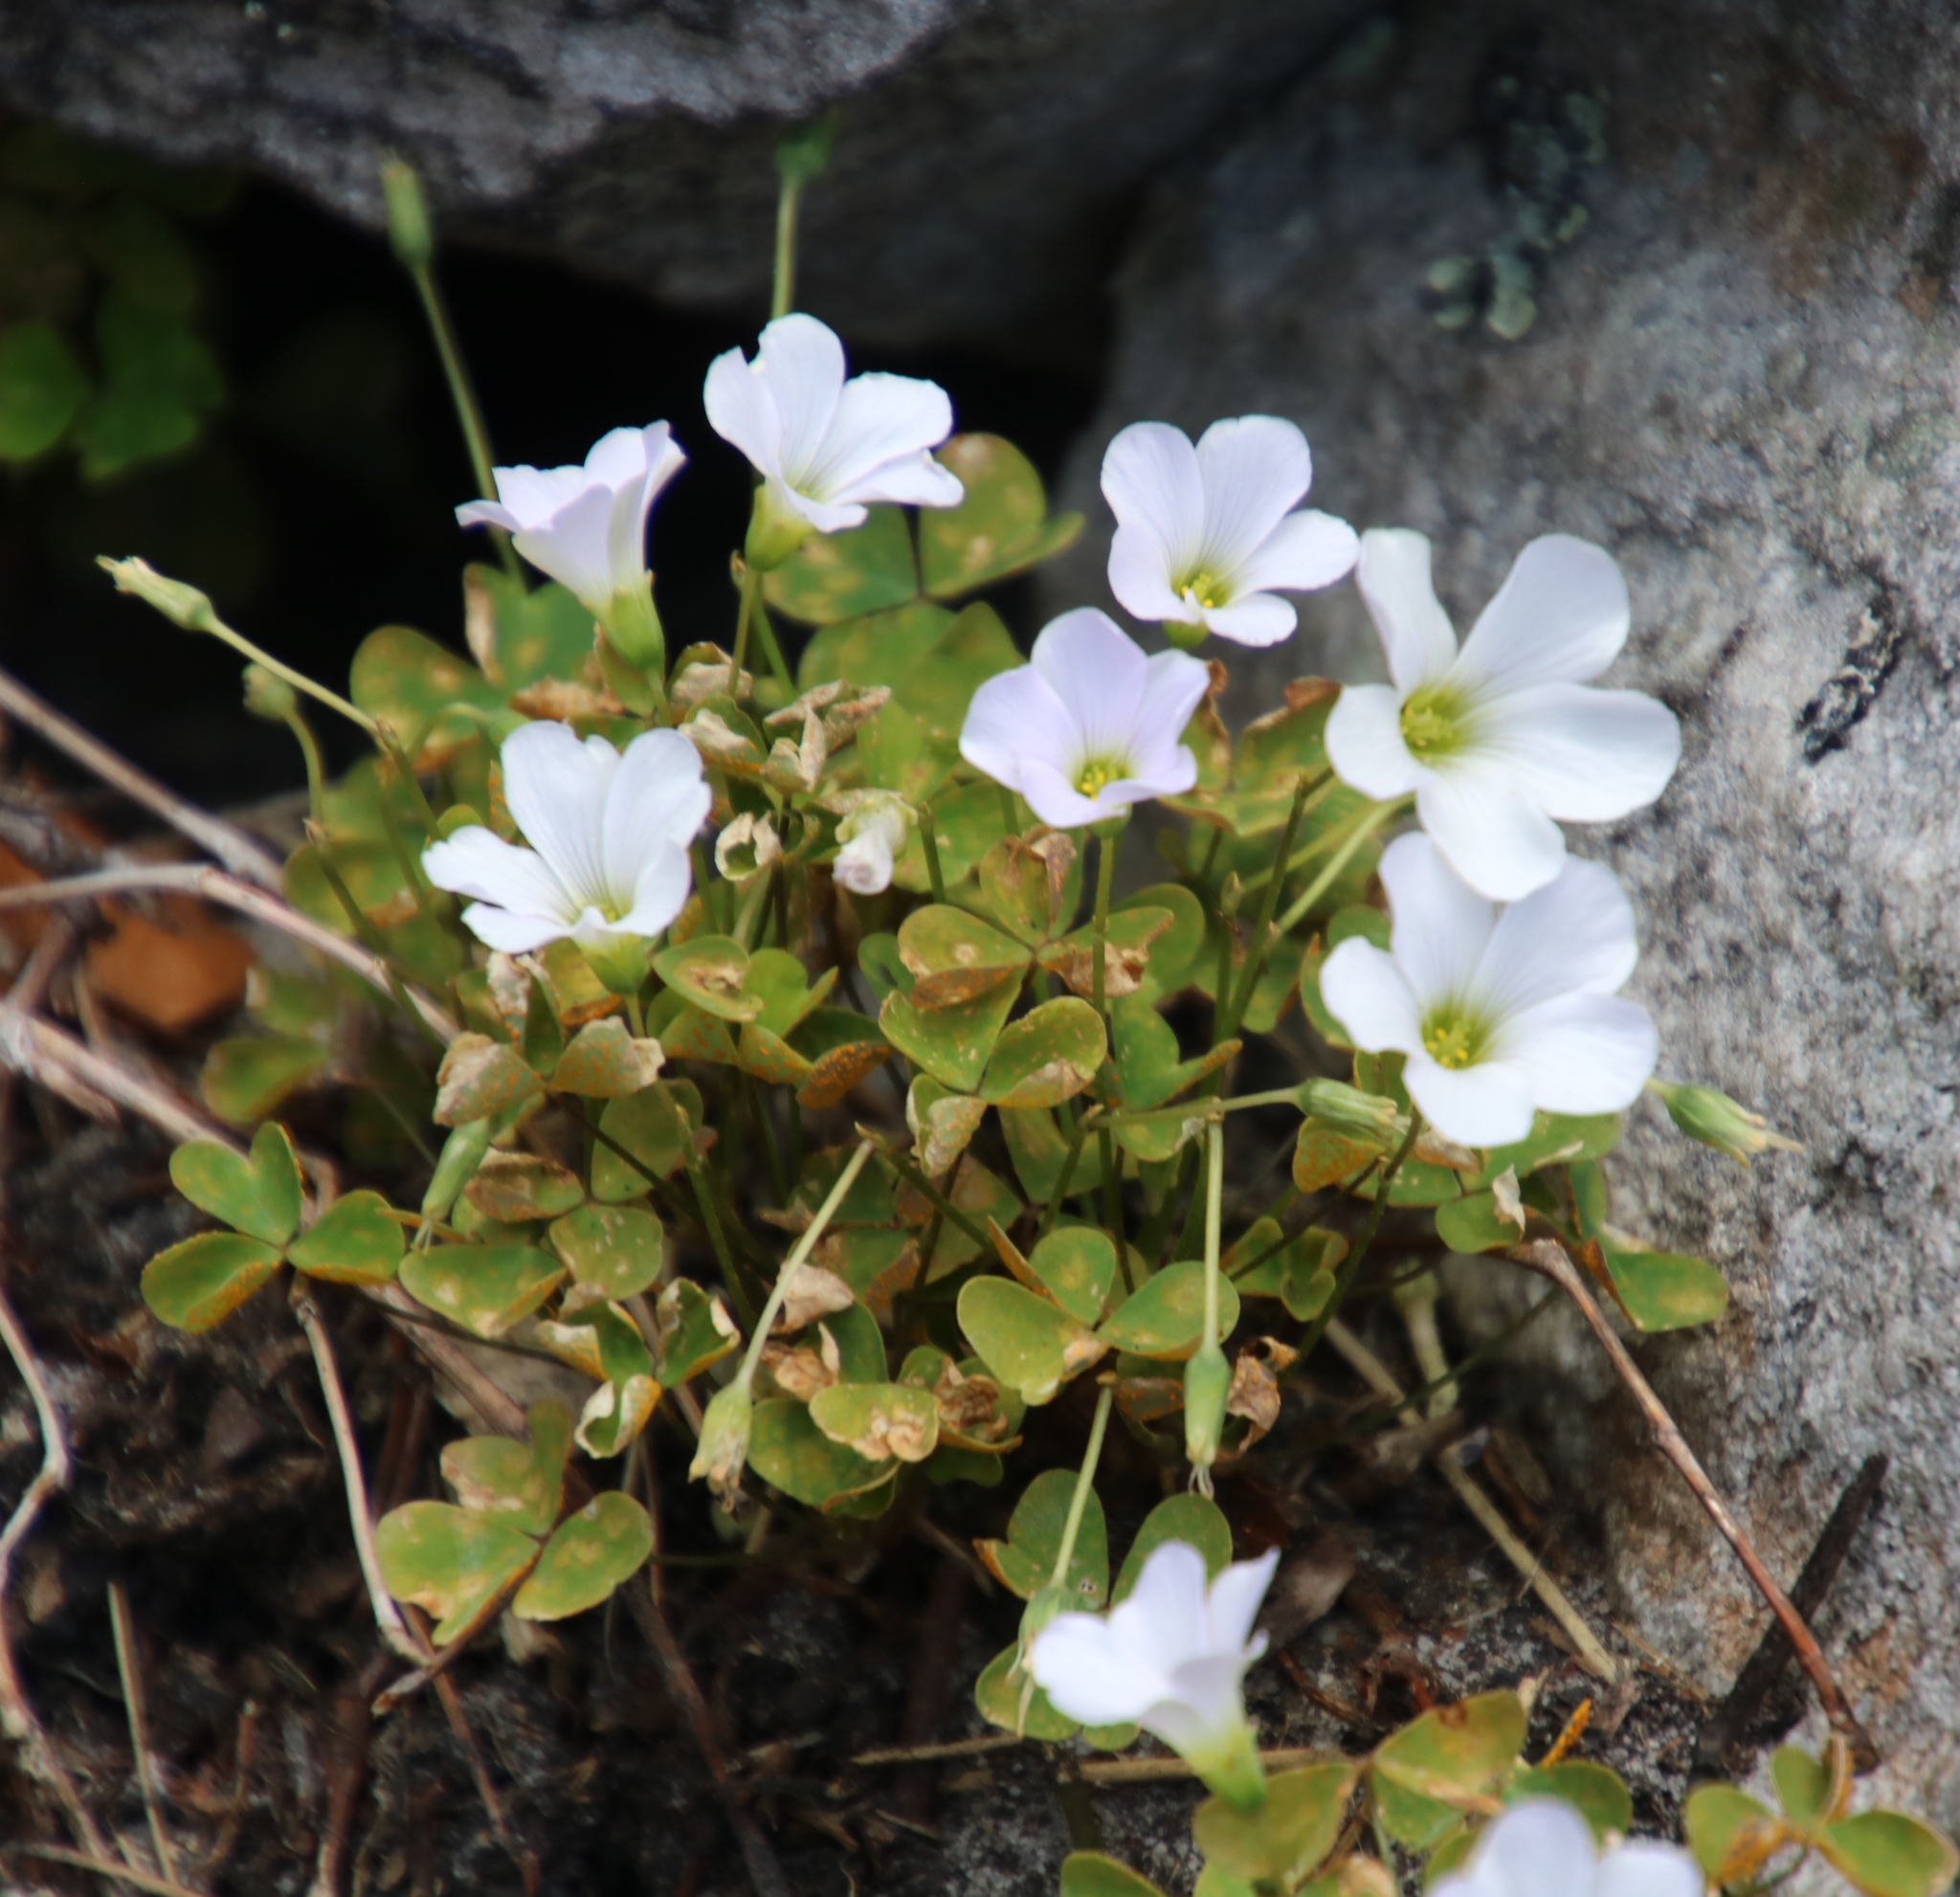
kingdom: Plantae
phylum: Tracheophyta
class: Magnoliopsida
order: Oxalidales
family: Oxalidaceae
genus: Oxalis
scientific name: Oxalis incarnata
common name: Pale pink-sorrel
